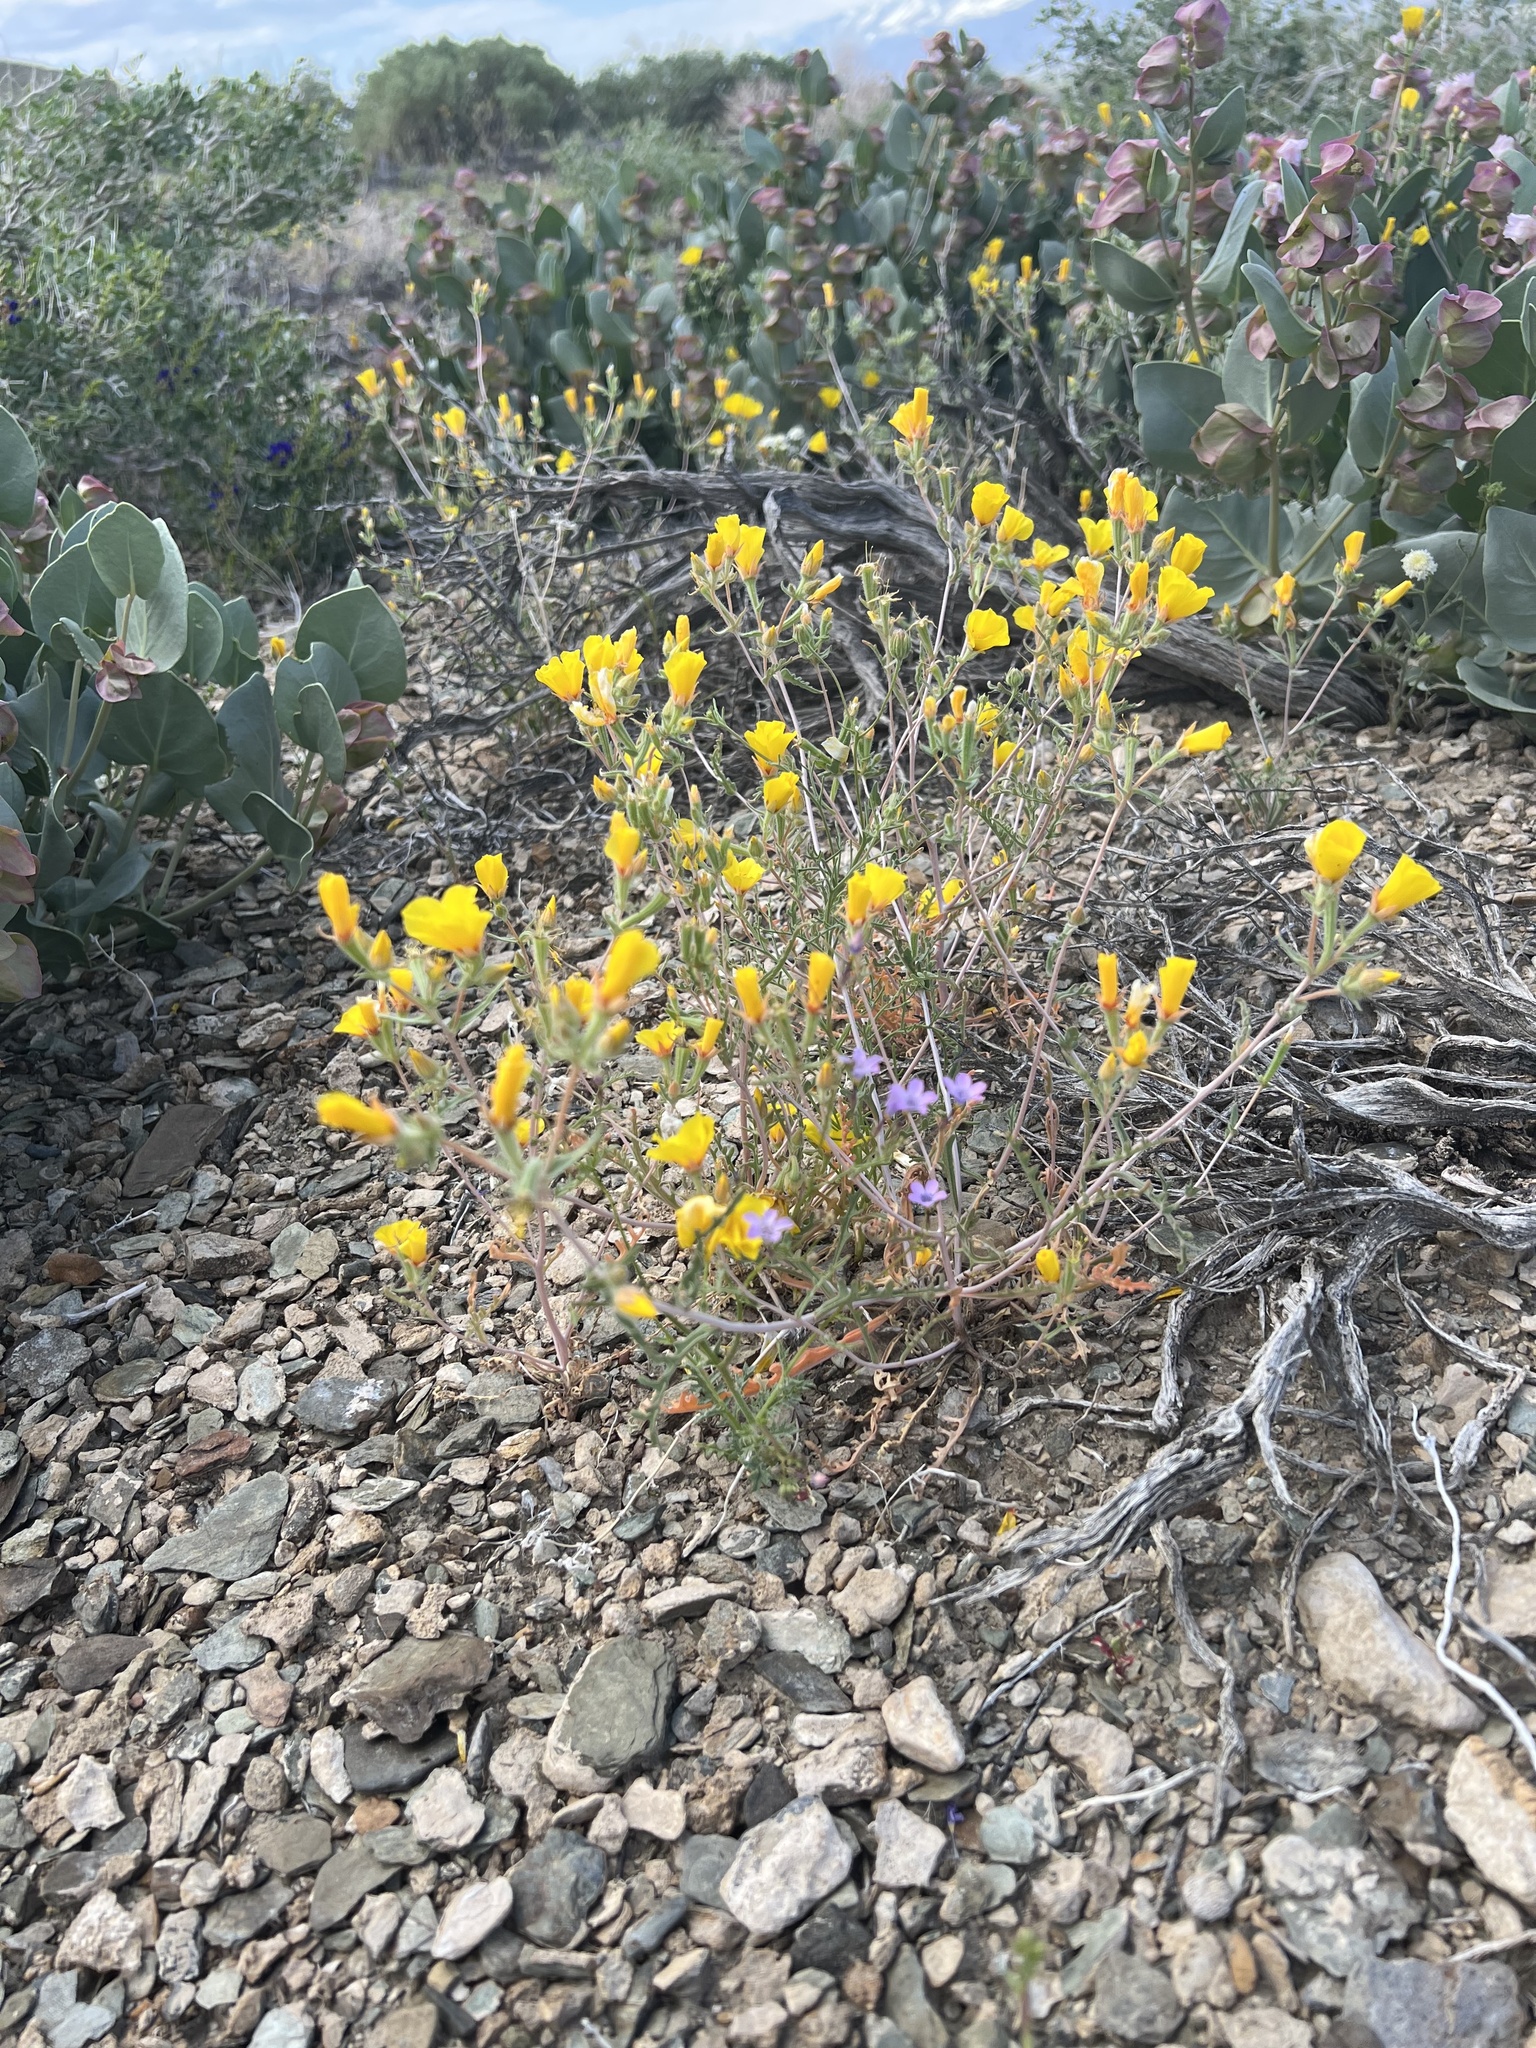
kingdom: Plantae
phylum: Tracheophyta
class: Magnoliopsida
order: Cornales
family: Loasaceae
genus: Mentzelia
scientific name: Mentzelia nitens
